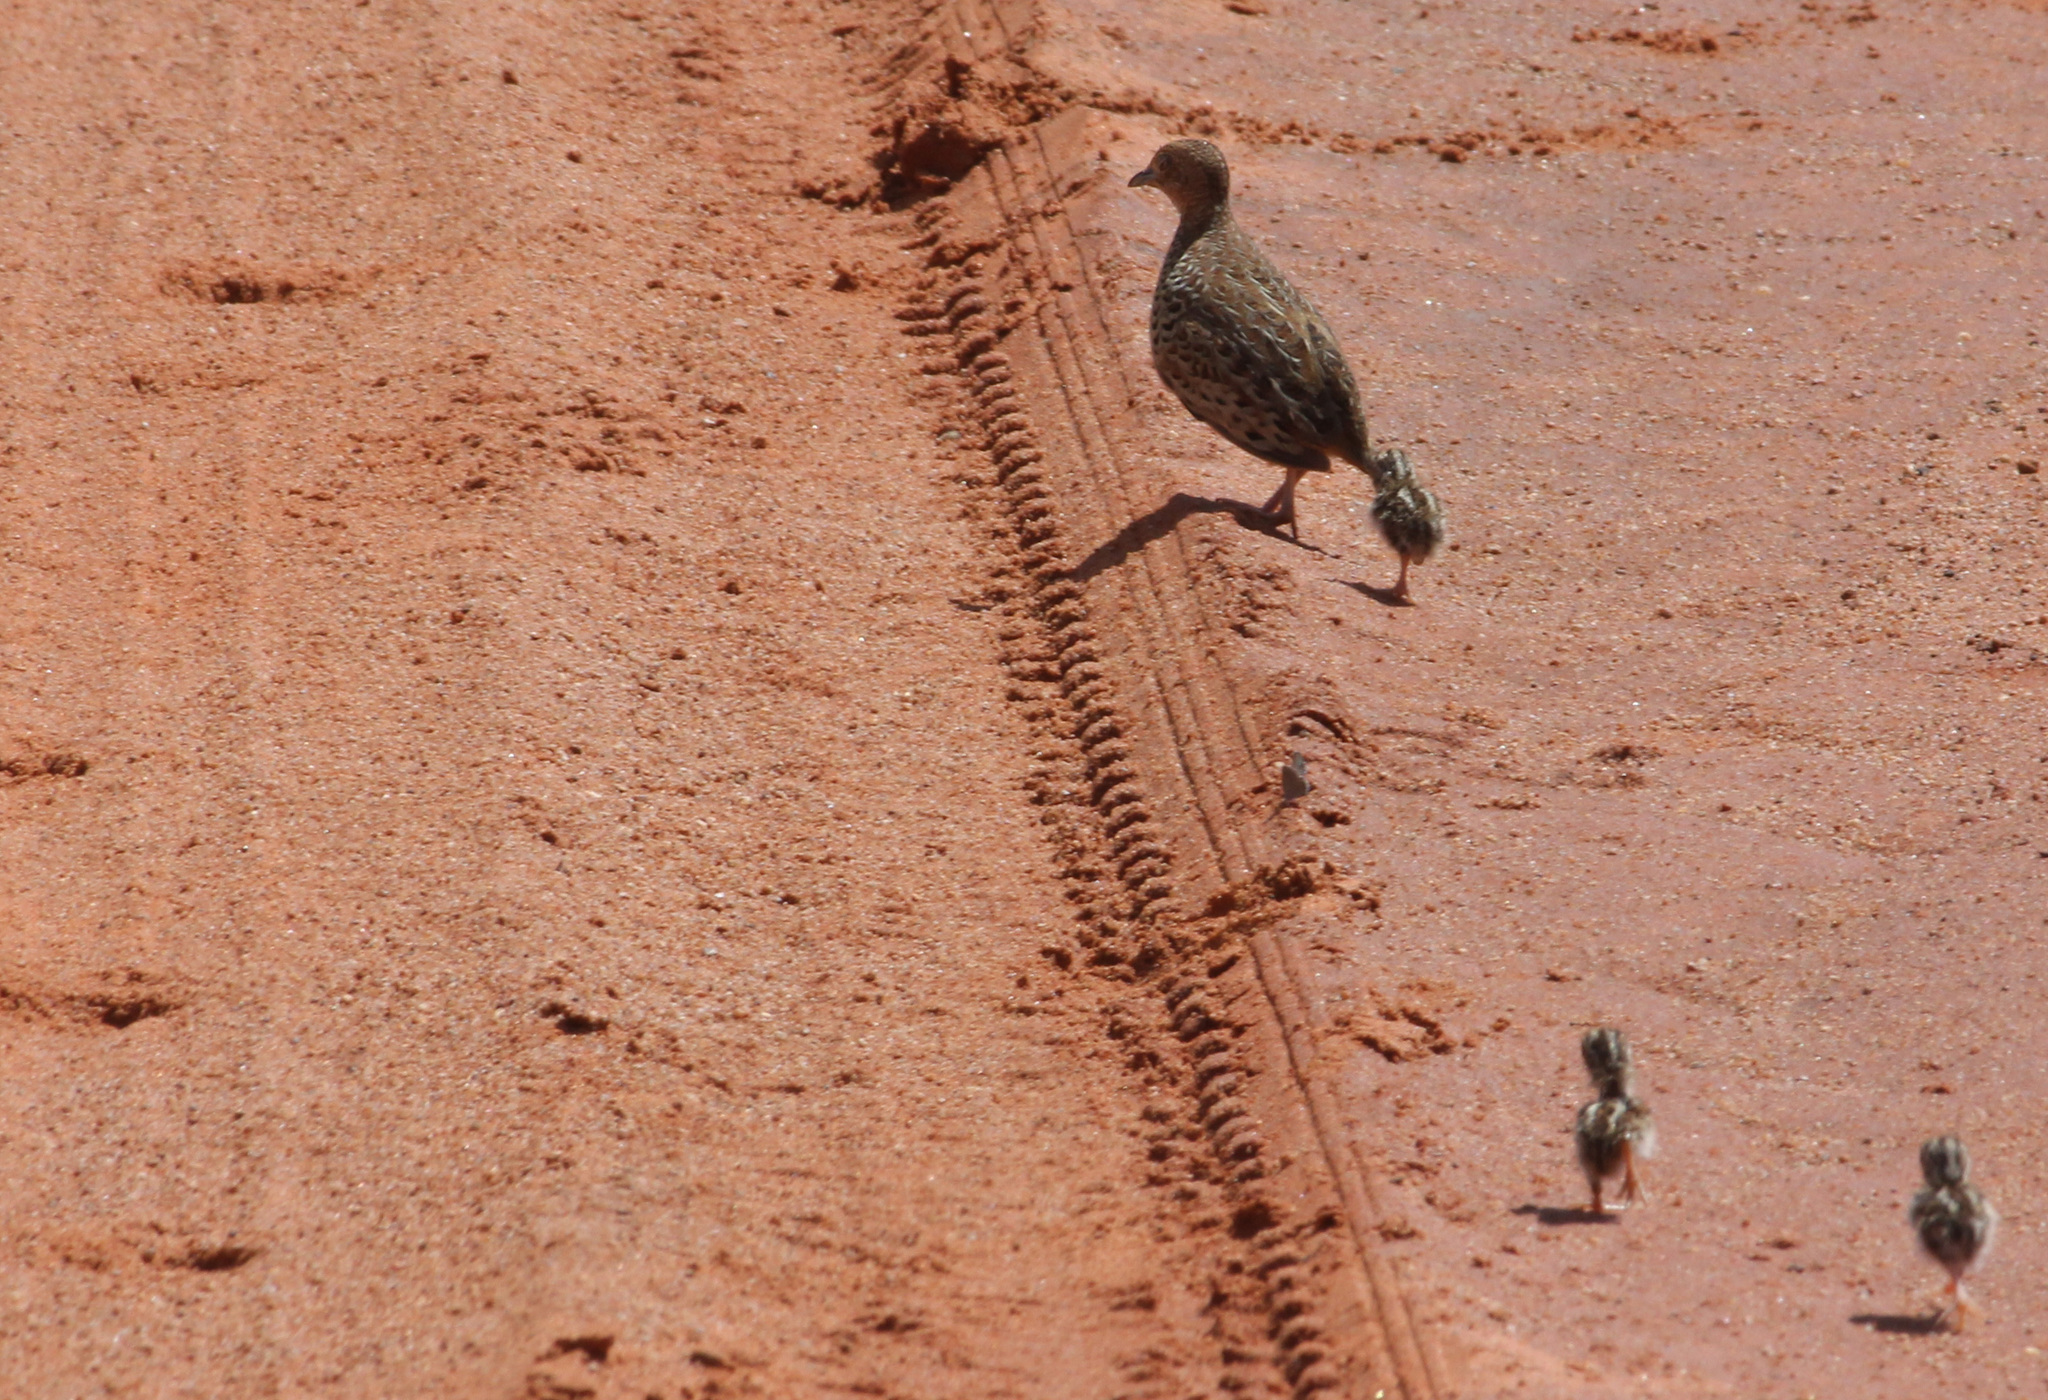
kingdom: Animalia
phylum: Chordata
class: Aves
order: Charadriiformes
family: Turnicidae
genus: Turnix
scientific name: Turnix sylvaticus
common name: Common buttonquail
